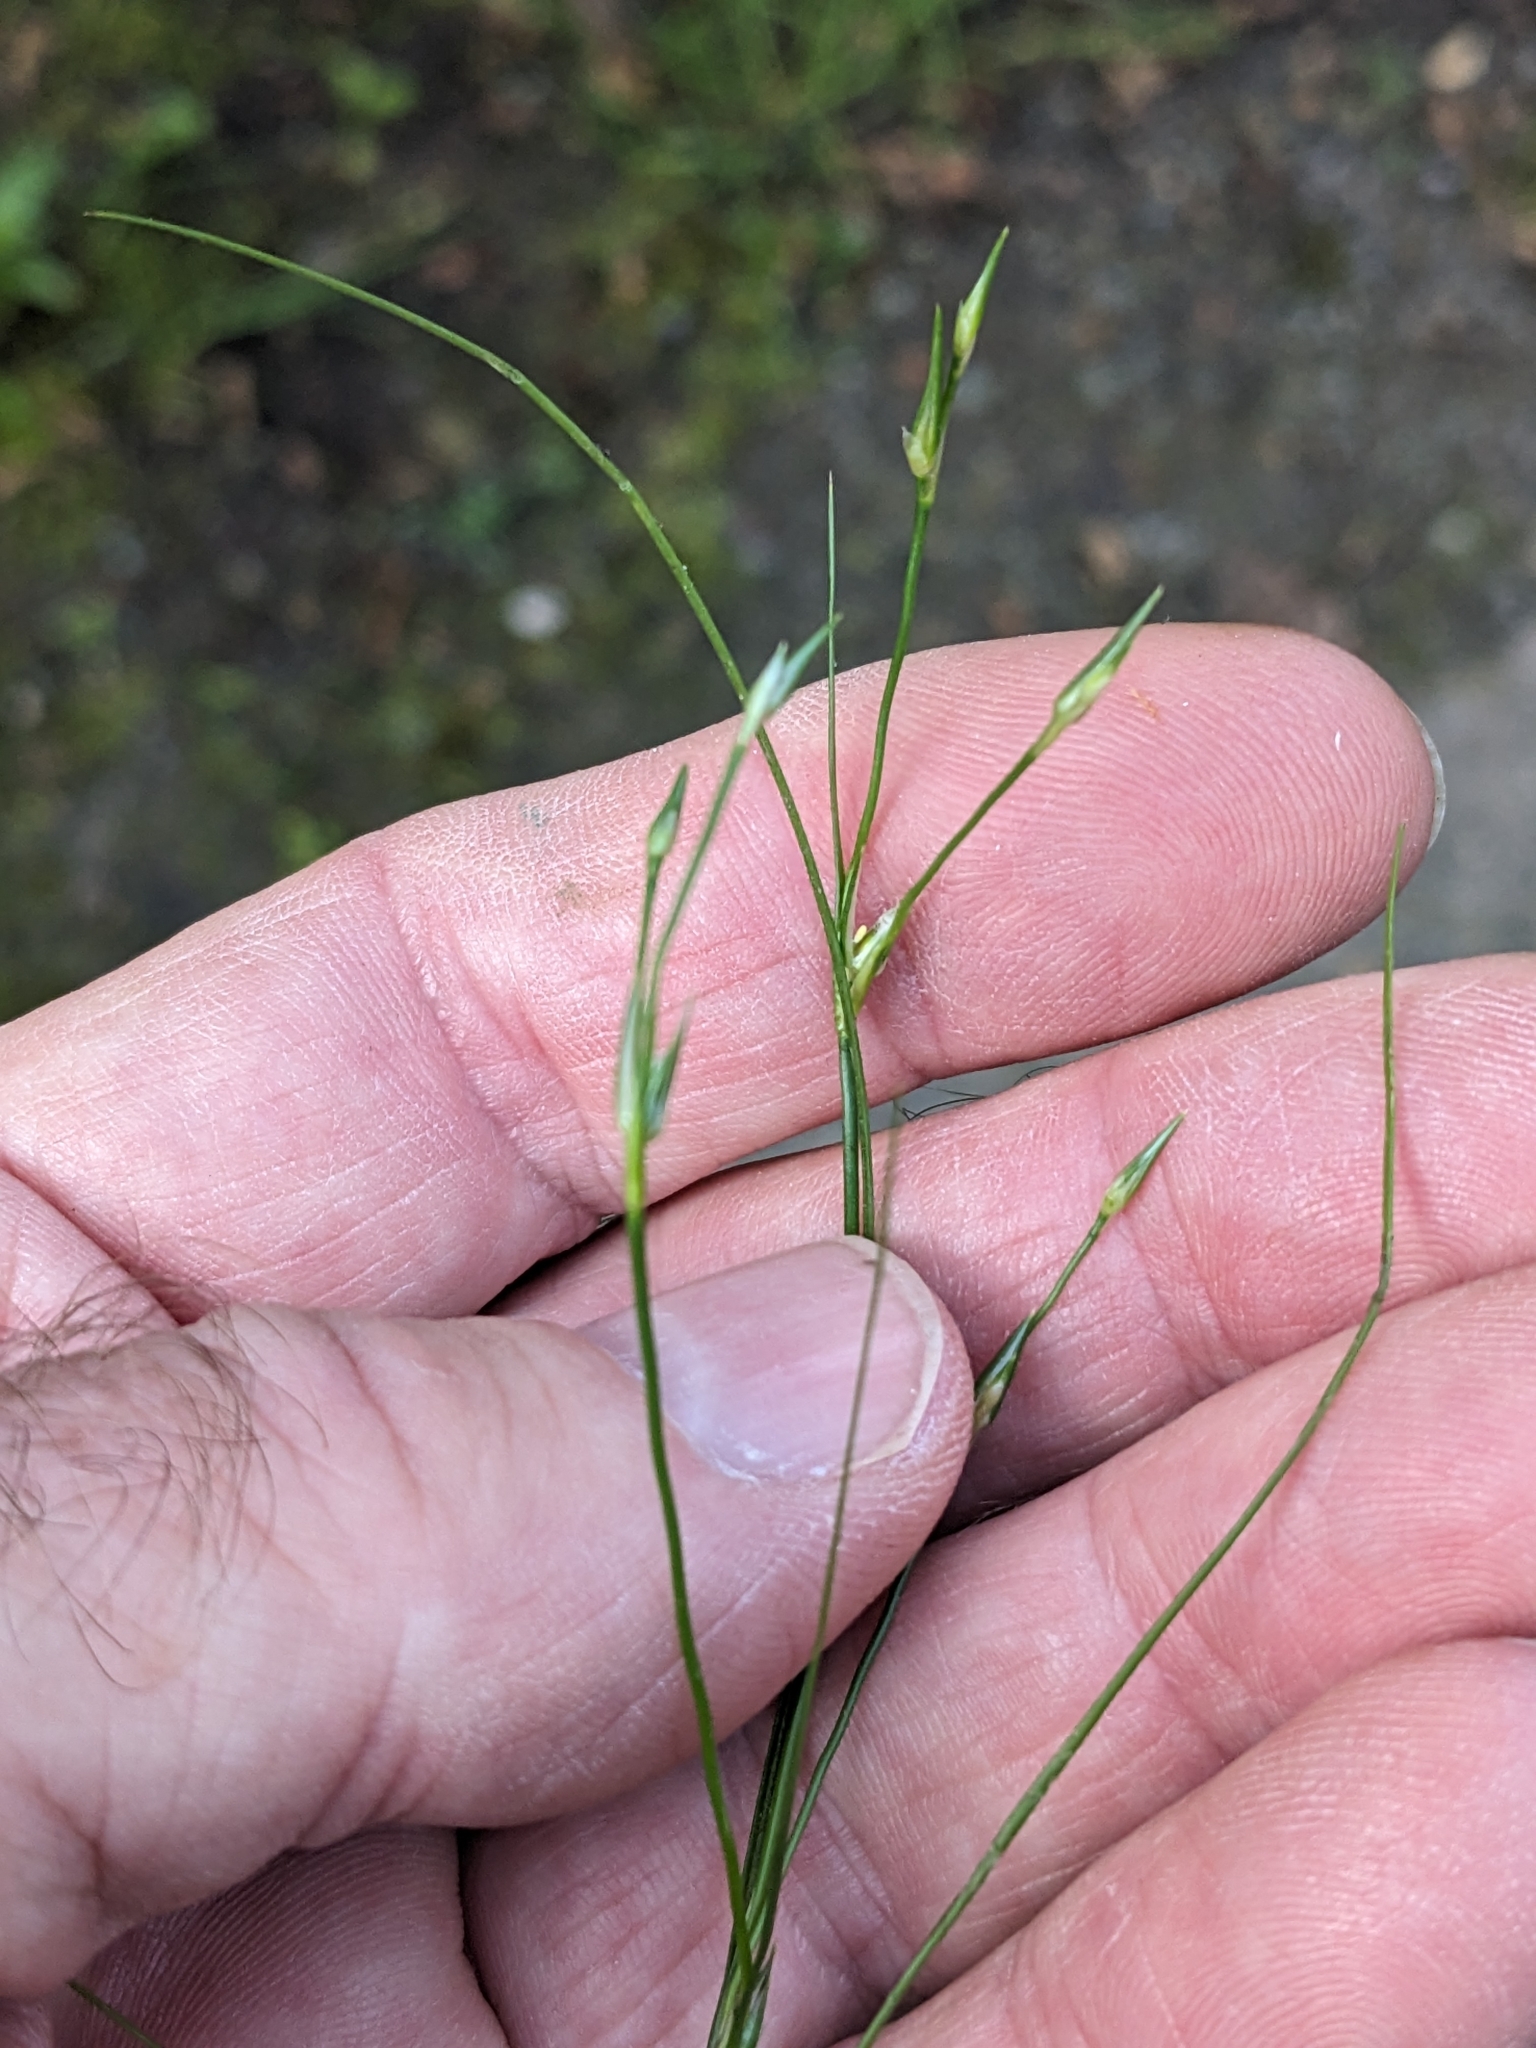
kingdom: Plantae
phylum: Tracheophyta
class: Liliopsida
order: Poales
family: Juncaceae
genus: Juncus
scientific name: Juncus bufonius
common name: Toad rush
